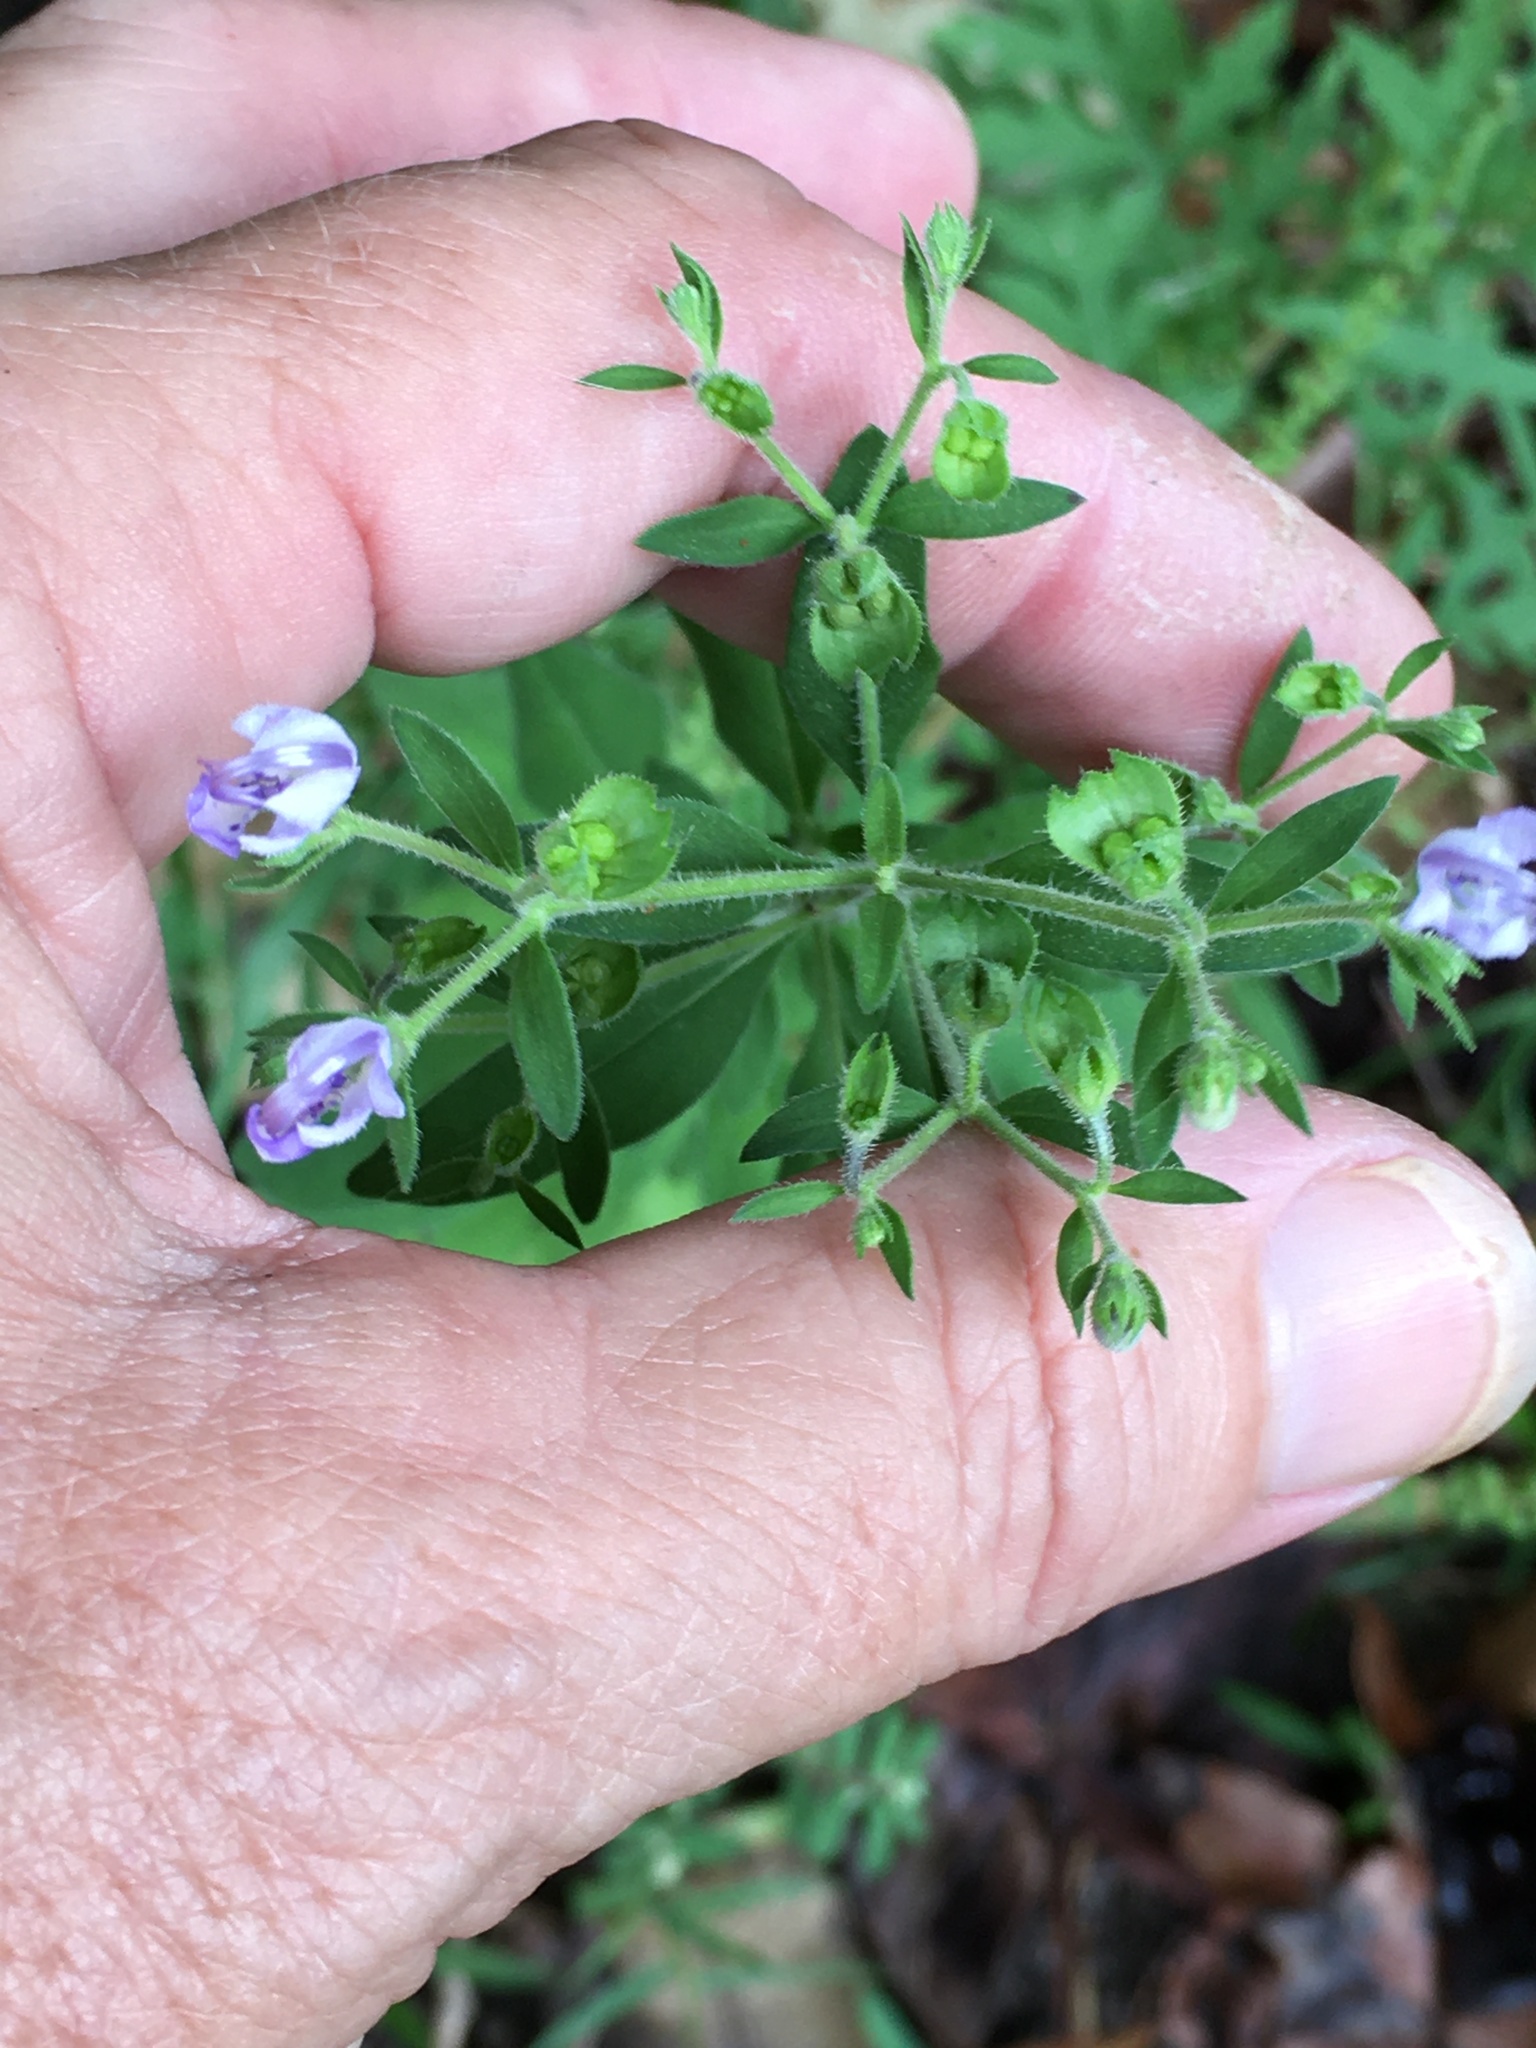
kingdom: Plantae
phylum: Tracheophyta
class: Magnoliopsida
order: Lamiales
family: Lamiaceae
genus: Trichostema
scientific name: Trichostema dichotomum
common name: Bastard pennyroyal
